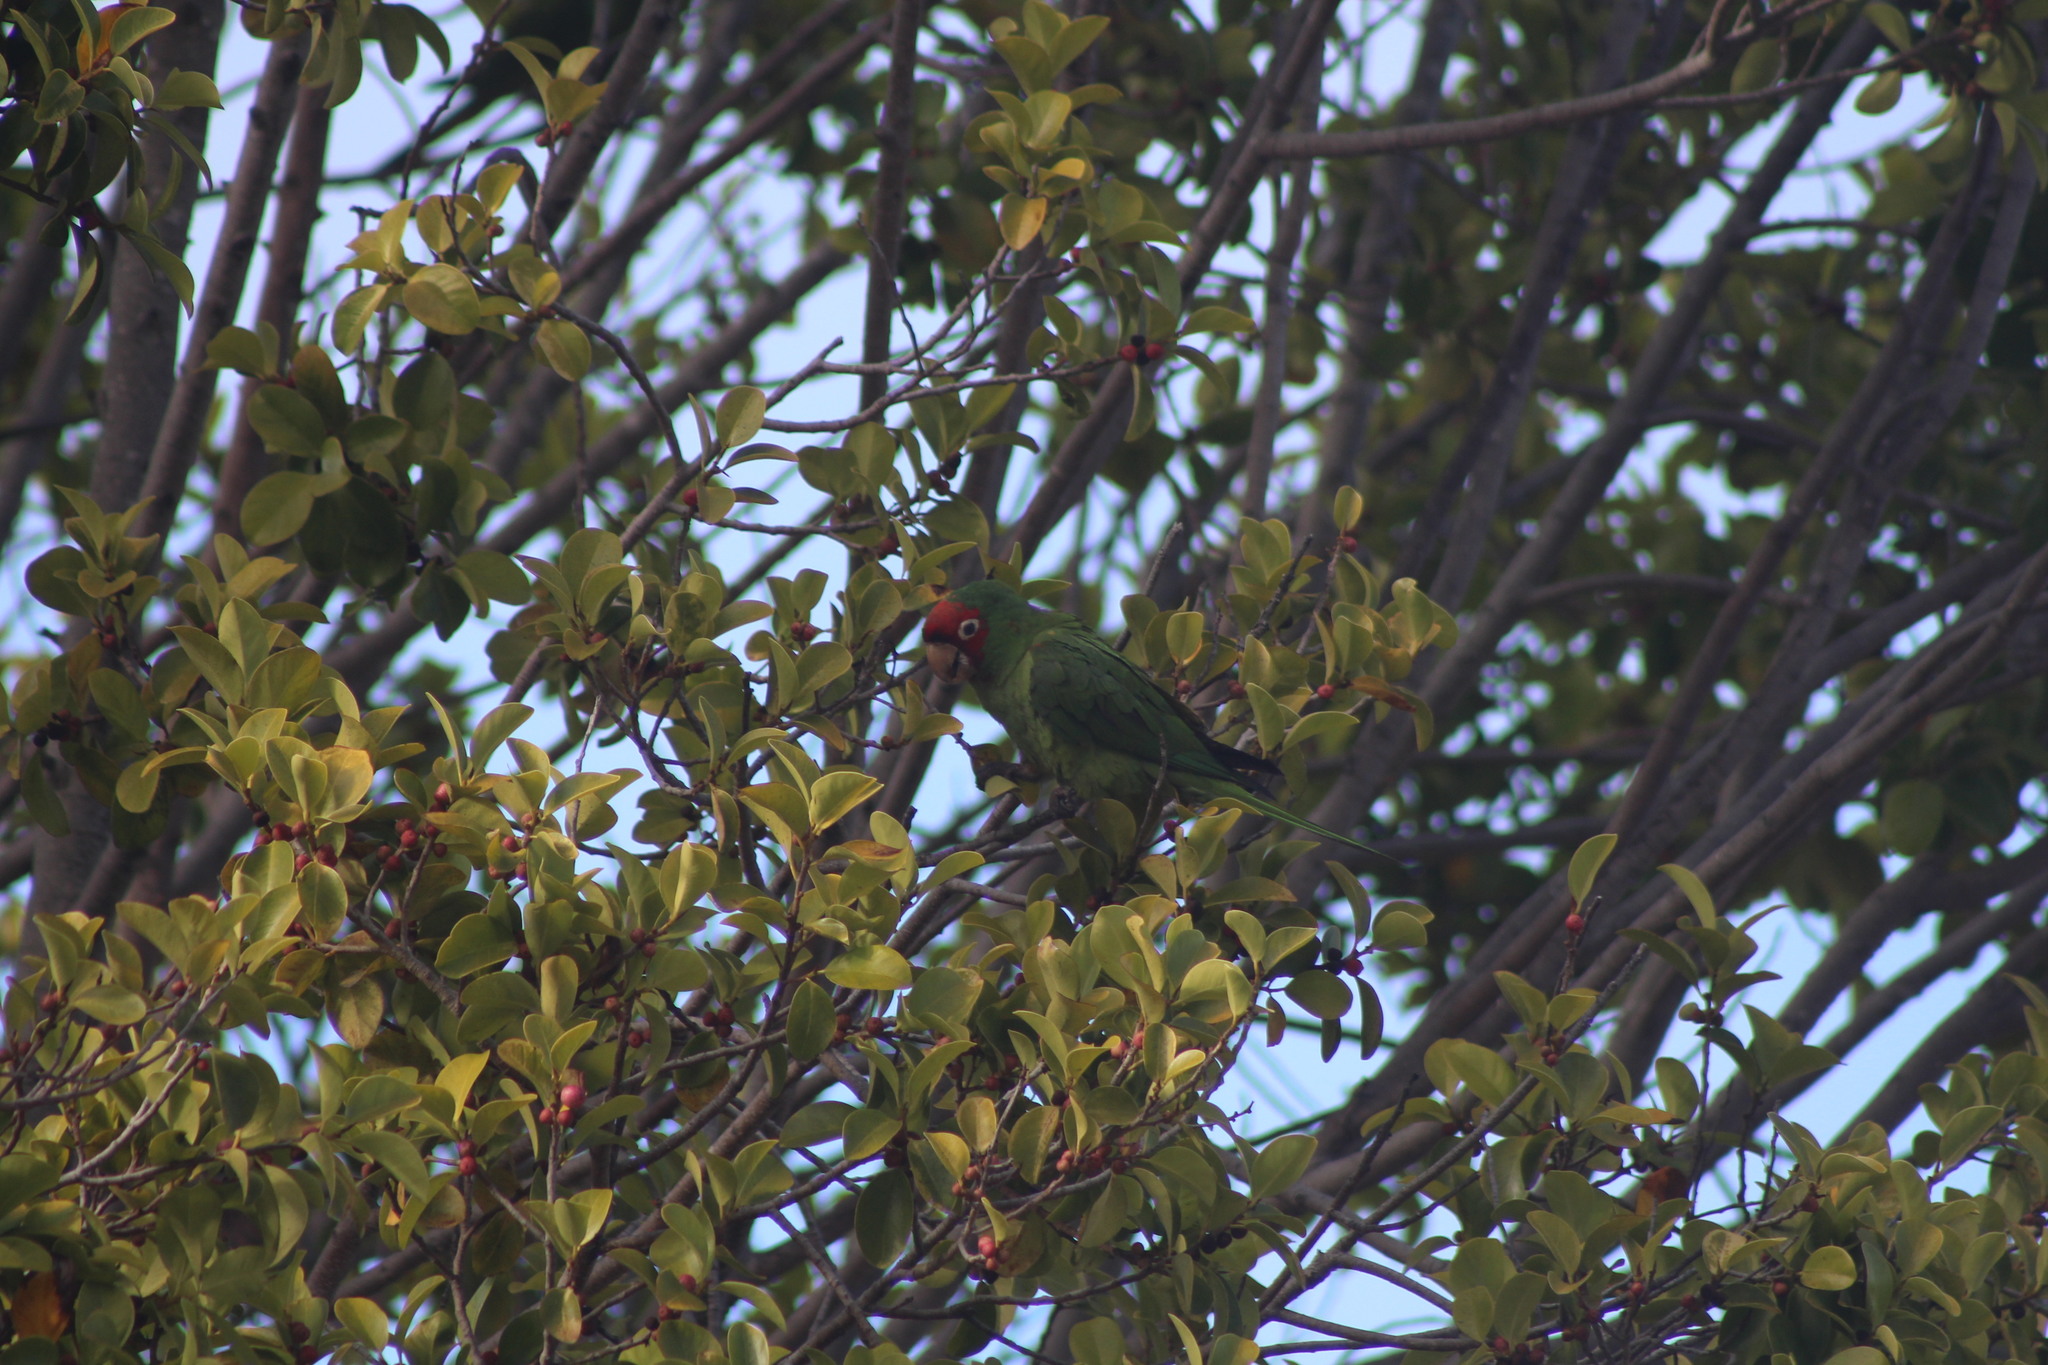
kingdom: Animalia
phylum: Chordata
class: Aves
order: Psittaciformes
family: Psittacidae
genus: Aratinga
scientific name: Aratinga erythrogenys
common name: Red-masked parakeet
